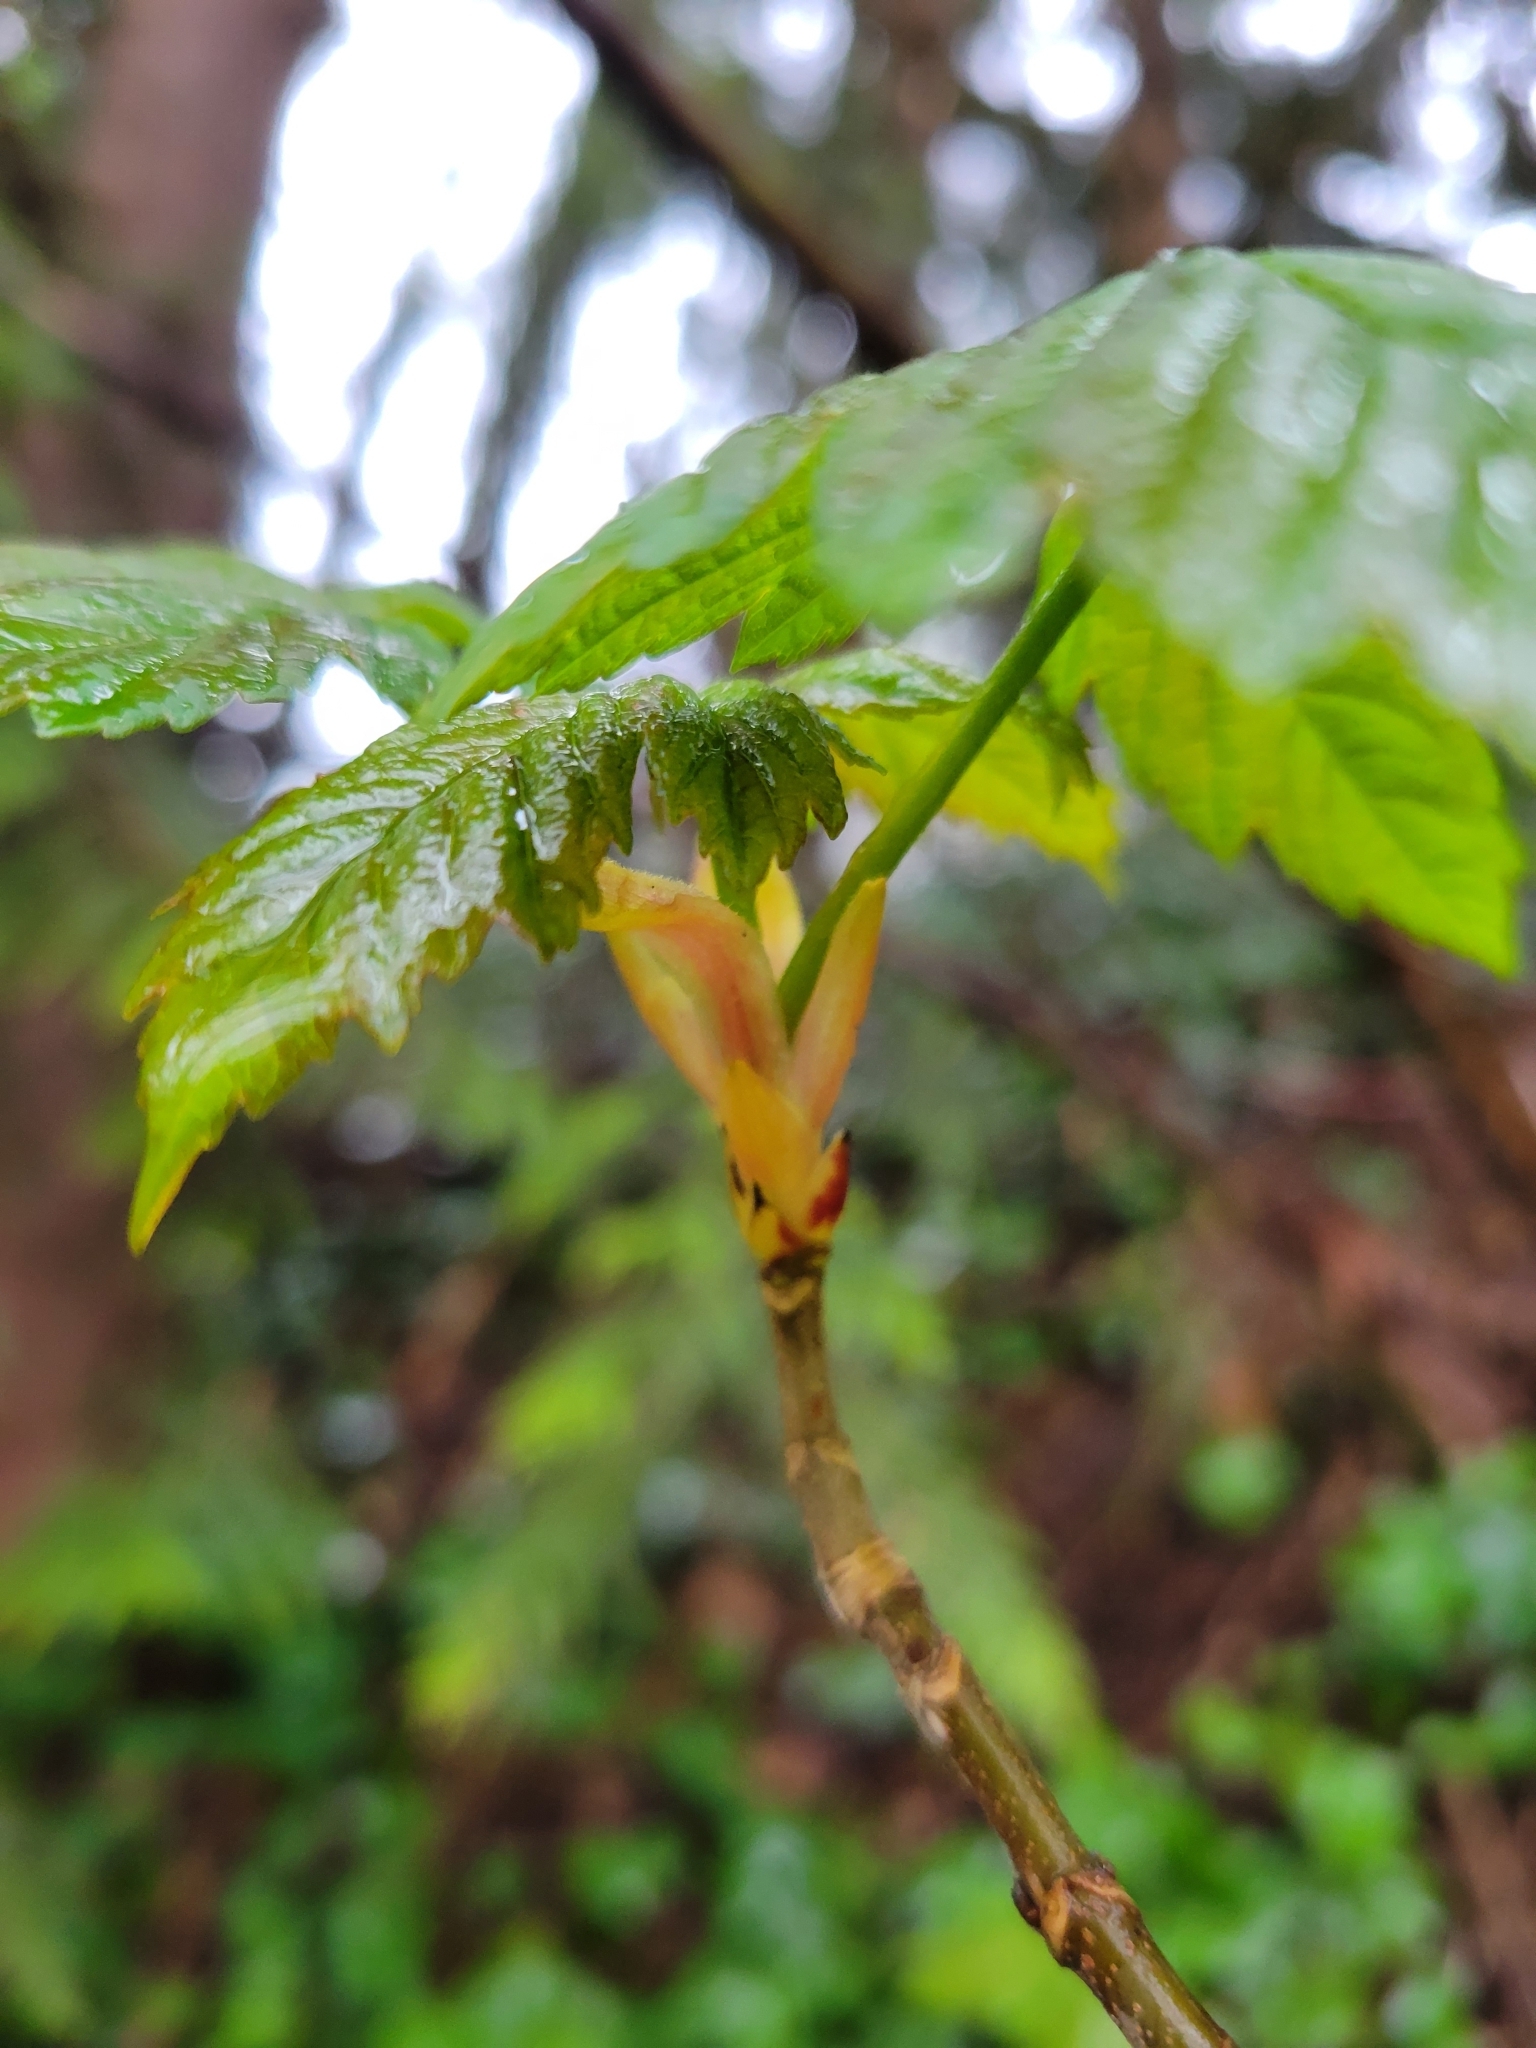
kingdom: Plantae
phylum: Tracheophyta
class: Magnoliopsida
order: Sapindales
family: Sapindaceae
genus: Acer
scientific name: Acer pseudoplatanus
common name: Sycamore
